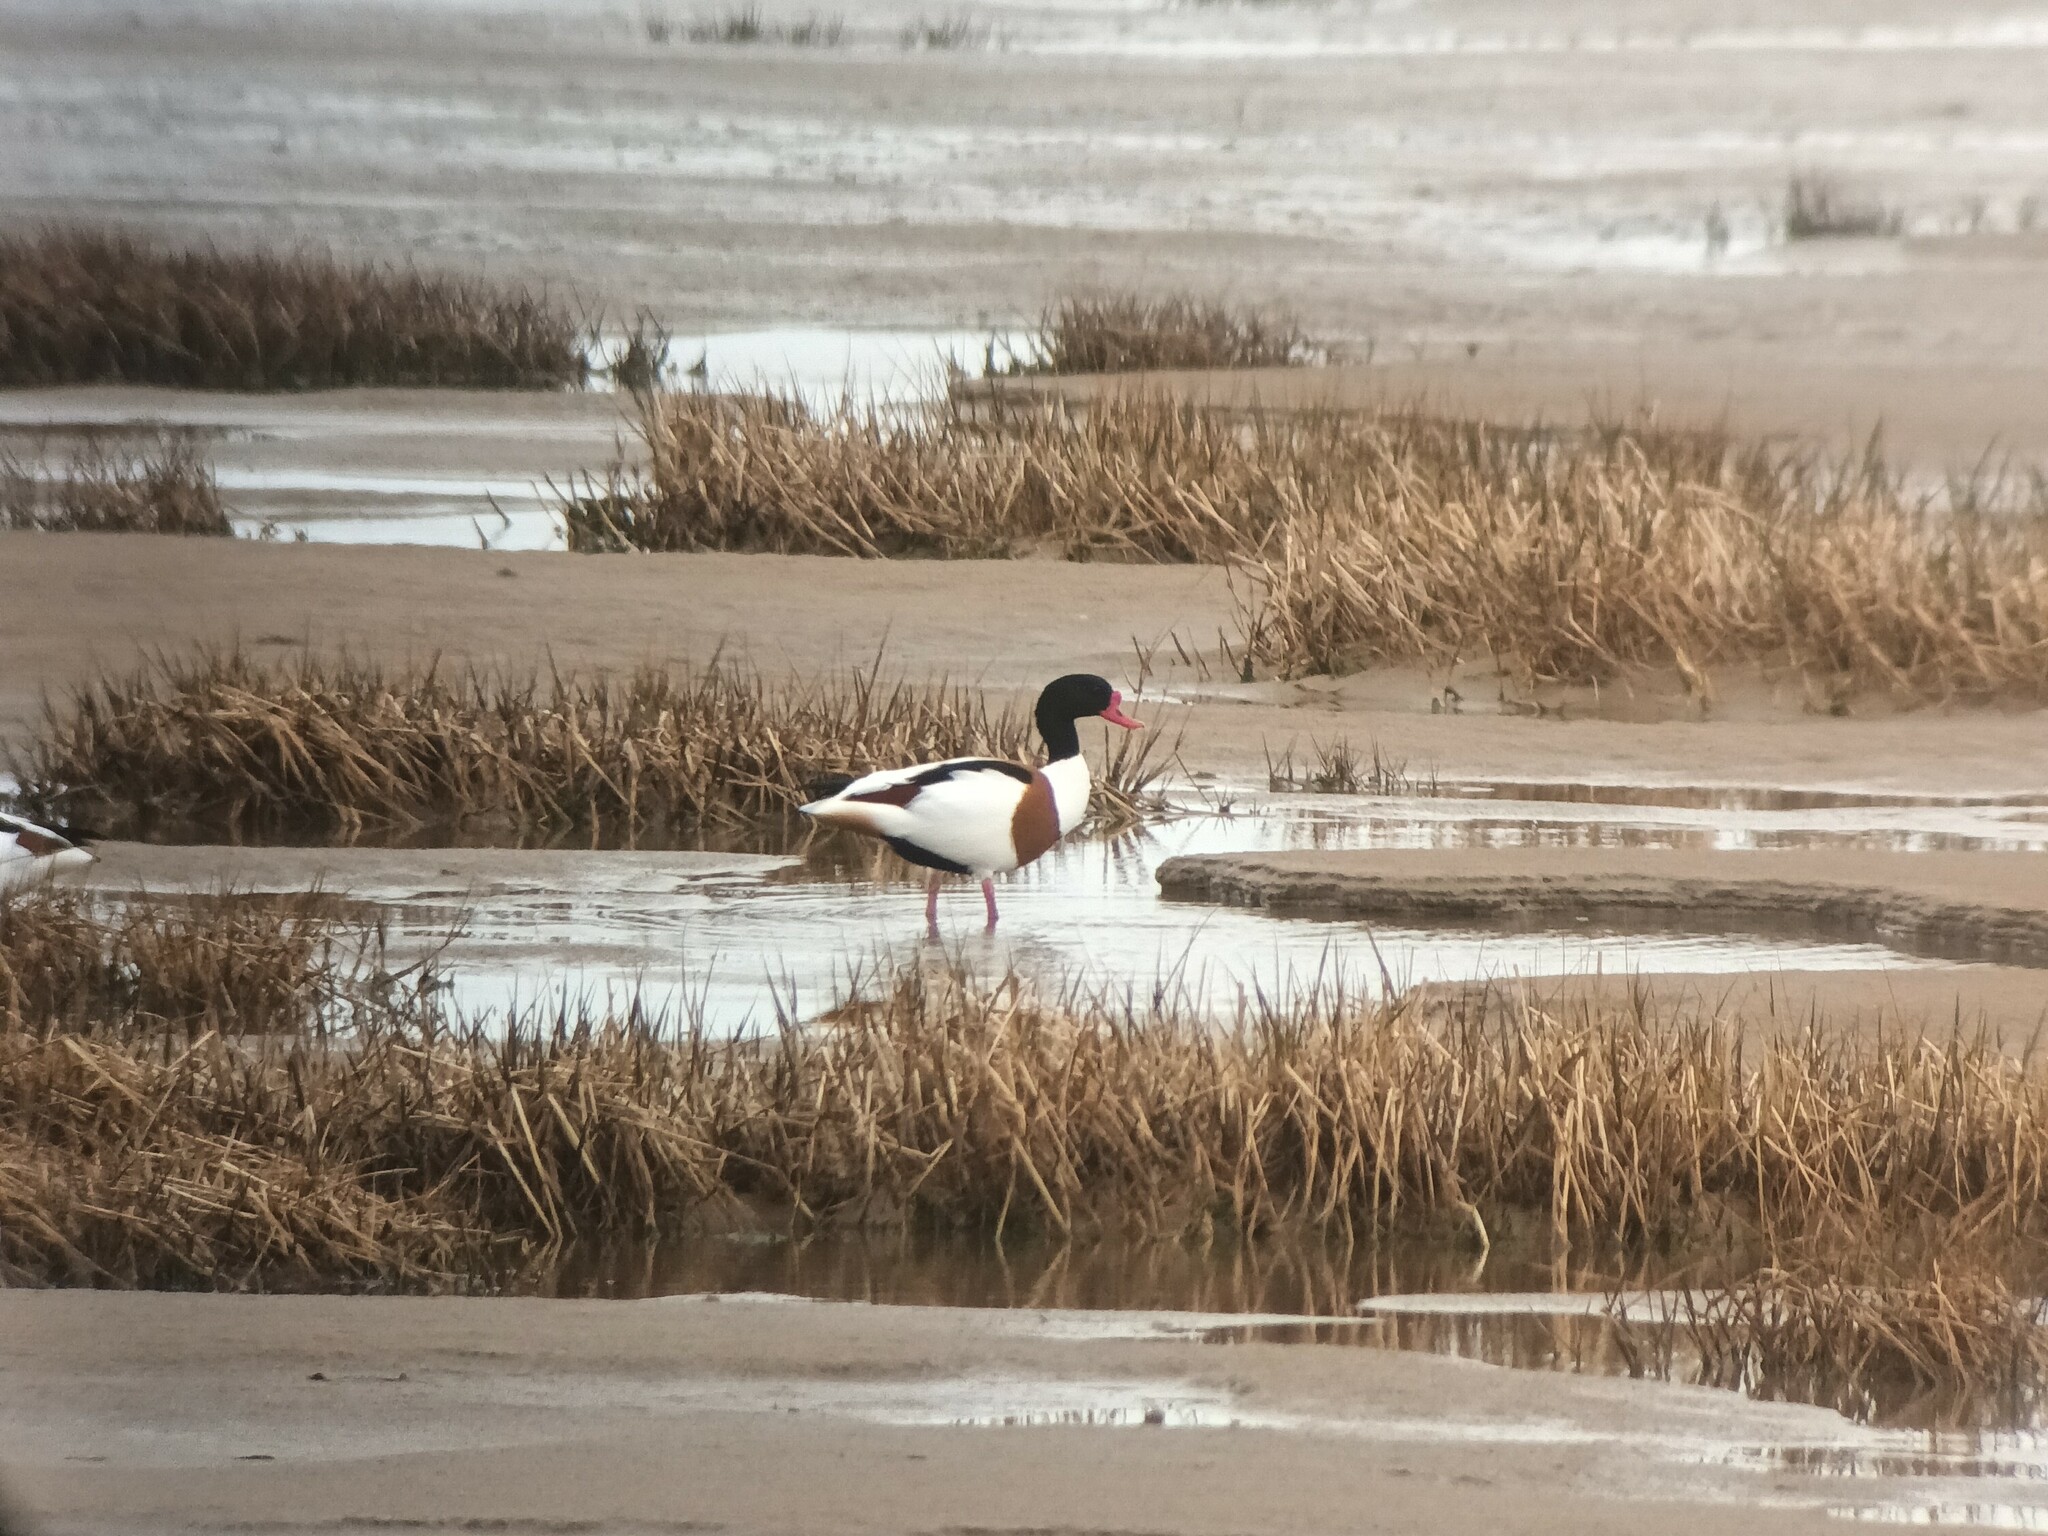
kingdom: Animalia
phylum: Chordata
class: Aves
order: Anseriformes
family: Anatidae
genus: Tadorna
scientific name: Tadorna tadorna
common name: Common shelduck
